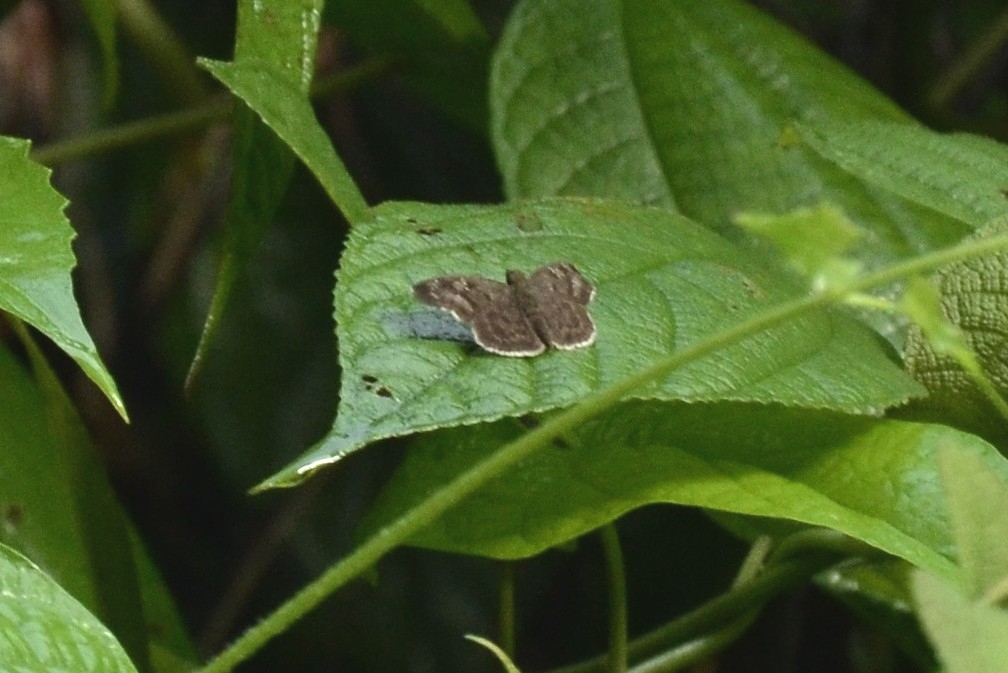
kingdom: Animalia
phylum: Arthropoda
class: Insecta
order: Lepidoptera
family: Hesperiidae
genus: Sarangesa
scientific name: Sarangesa dasahara
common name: Common small flat
